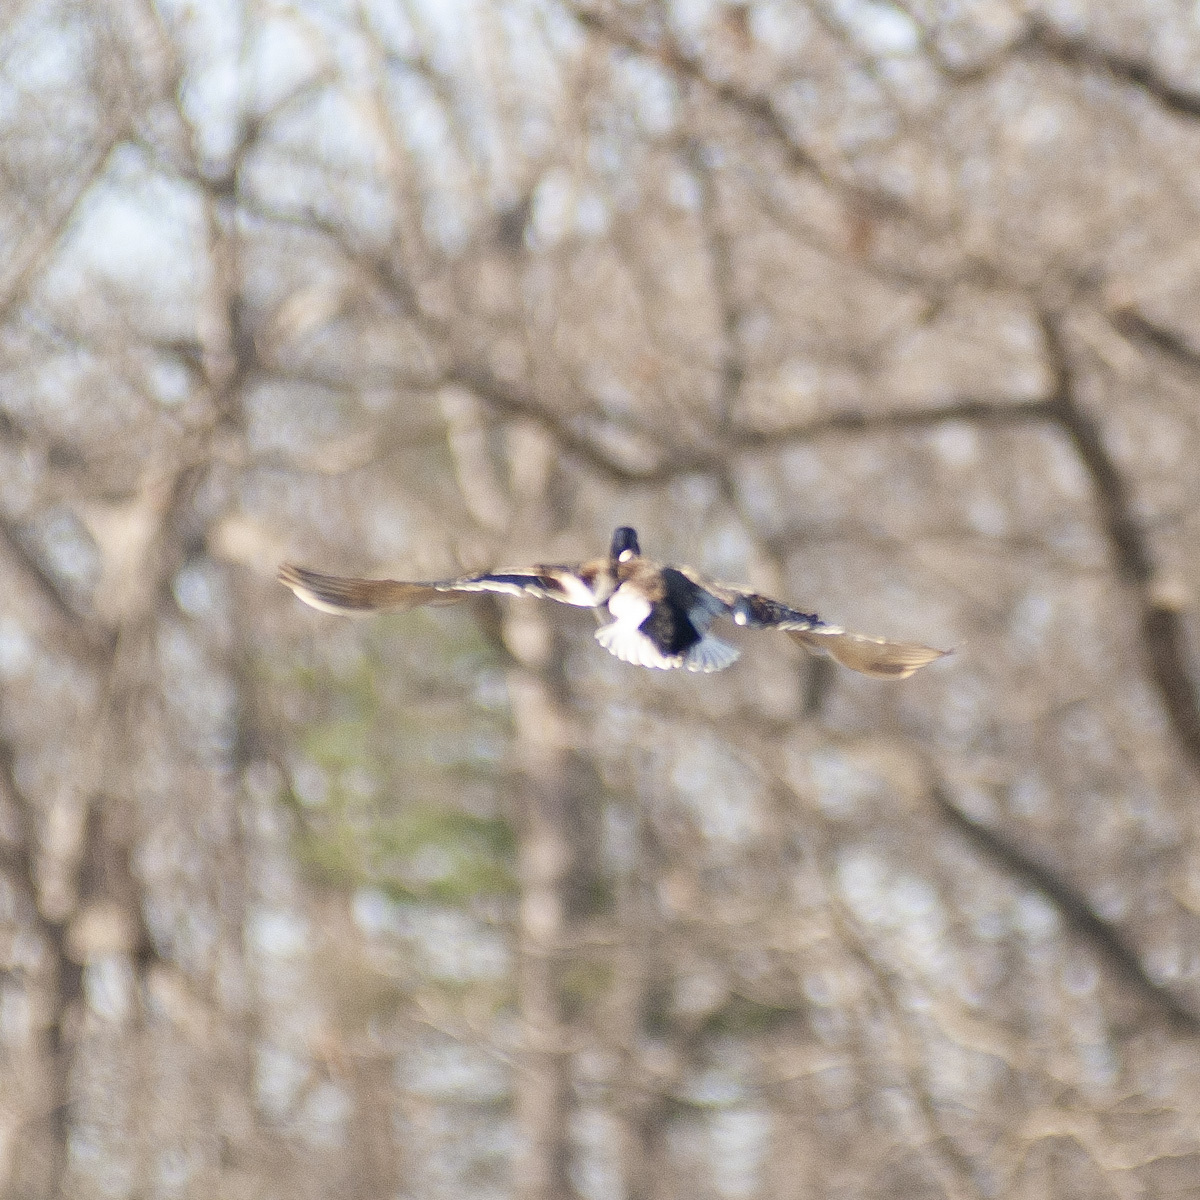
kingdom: Animalia
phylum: Chordata
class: Aves
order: Anseriformes
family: Anatidae
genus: Anas
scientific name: Anas platyrhynchos
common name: Mallard
